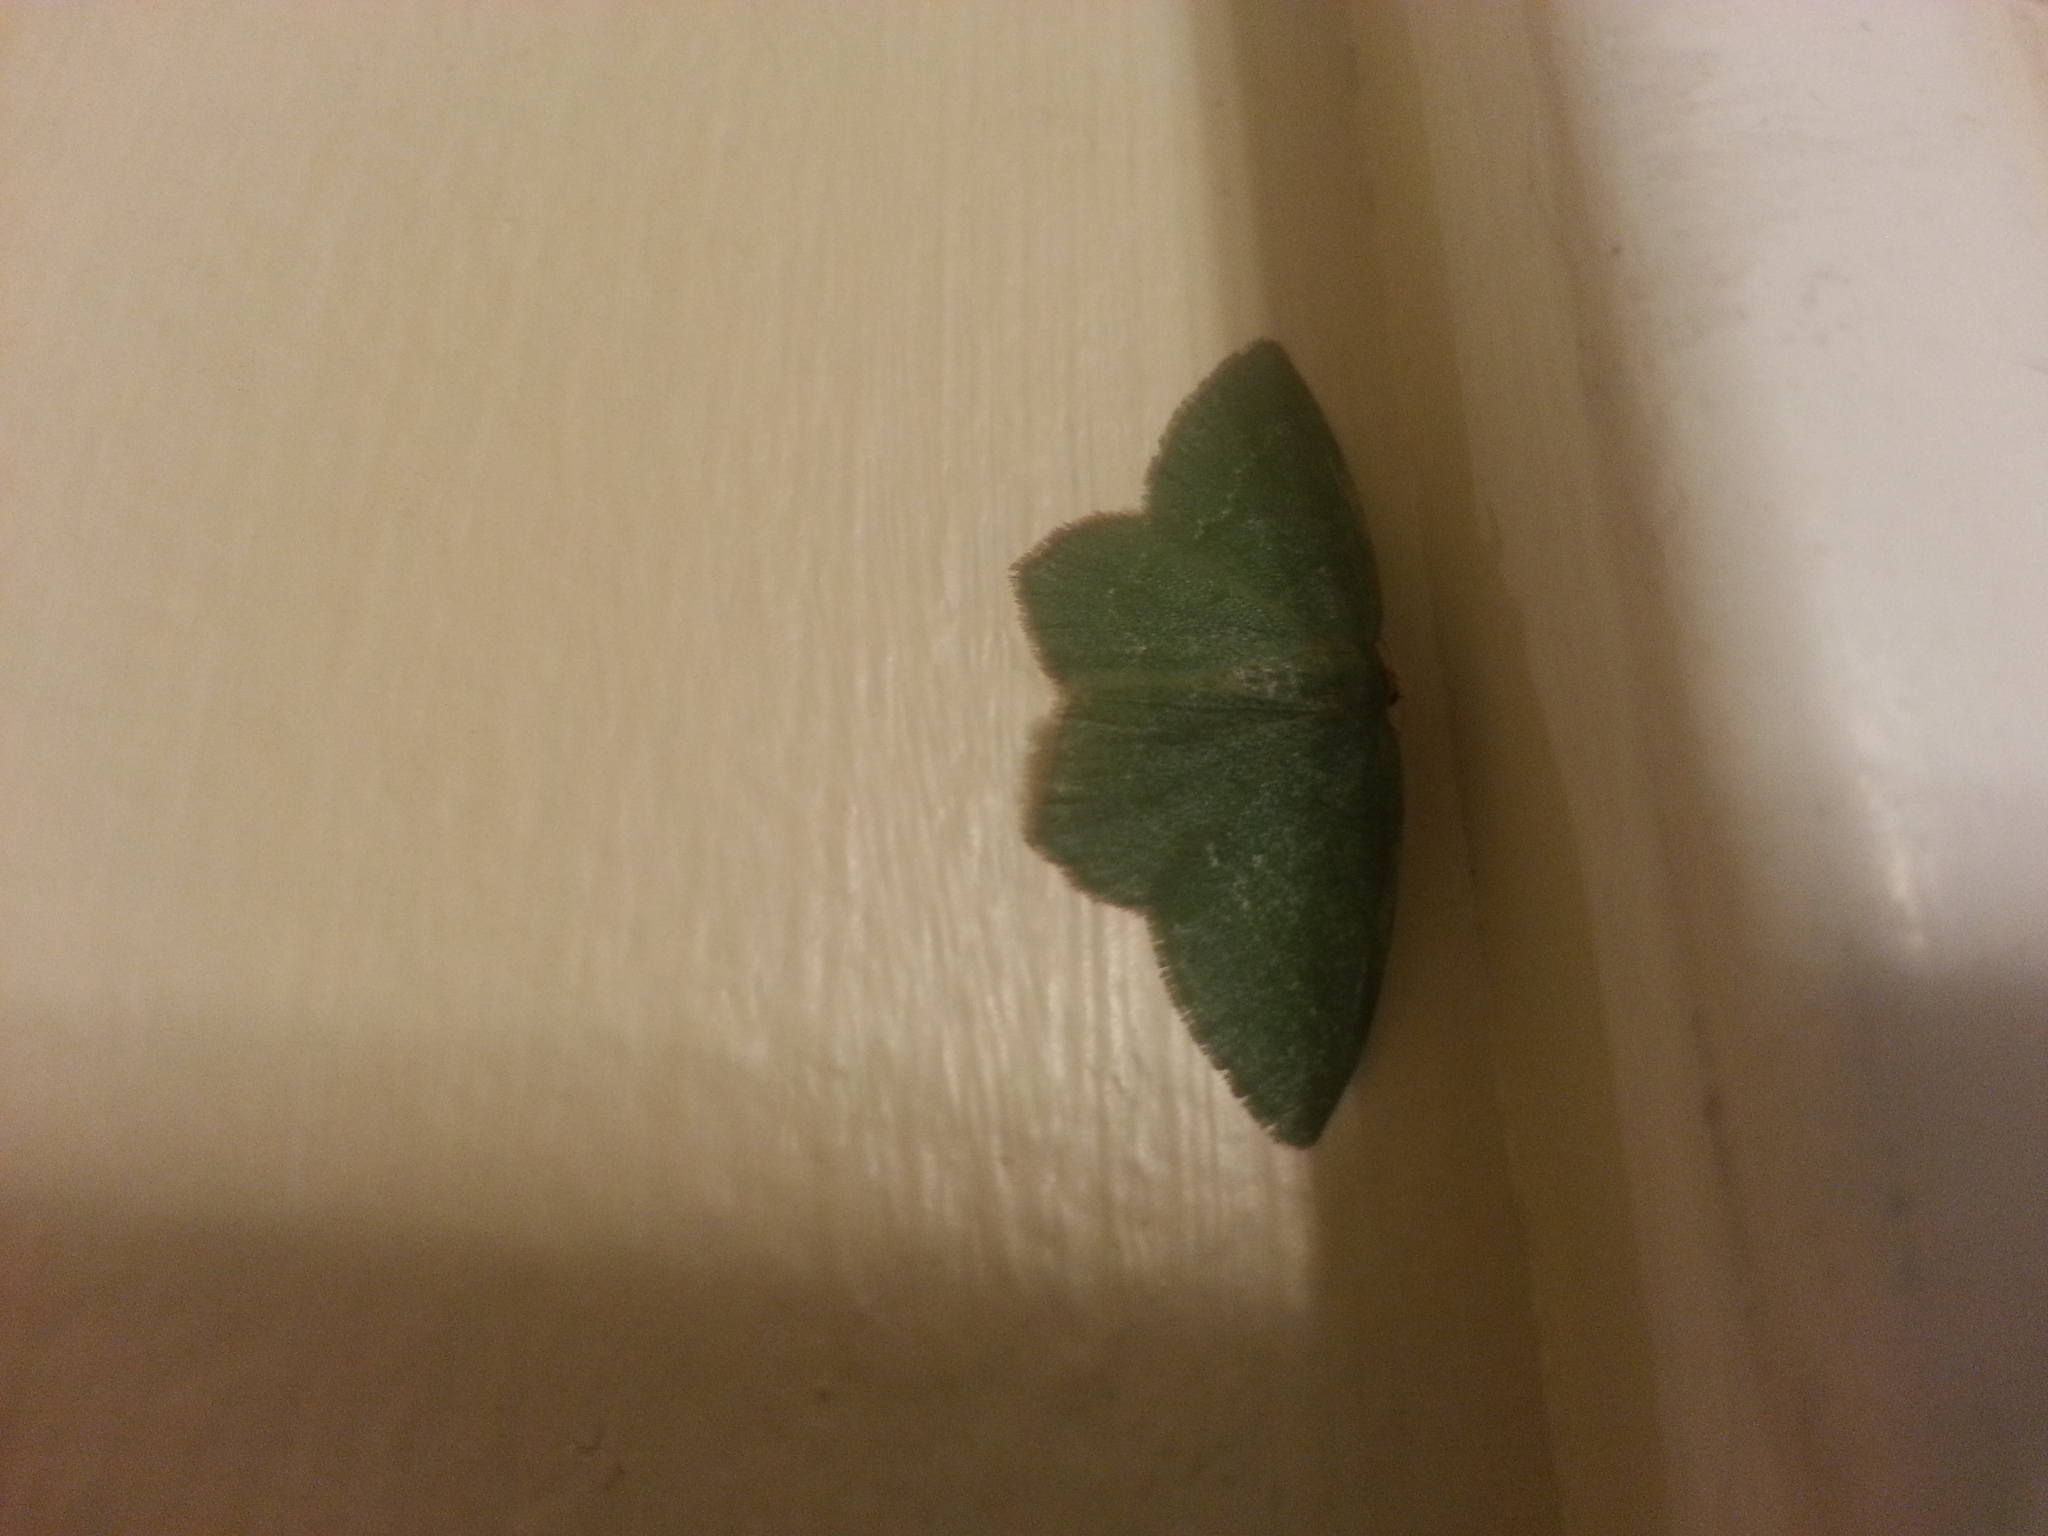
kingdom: Animalia
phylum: Arthropoda
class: Insecta
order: Lepidoptera
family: Geometridae
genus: Thalera
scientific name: Thalera pistasciaria
